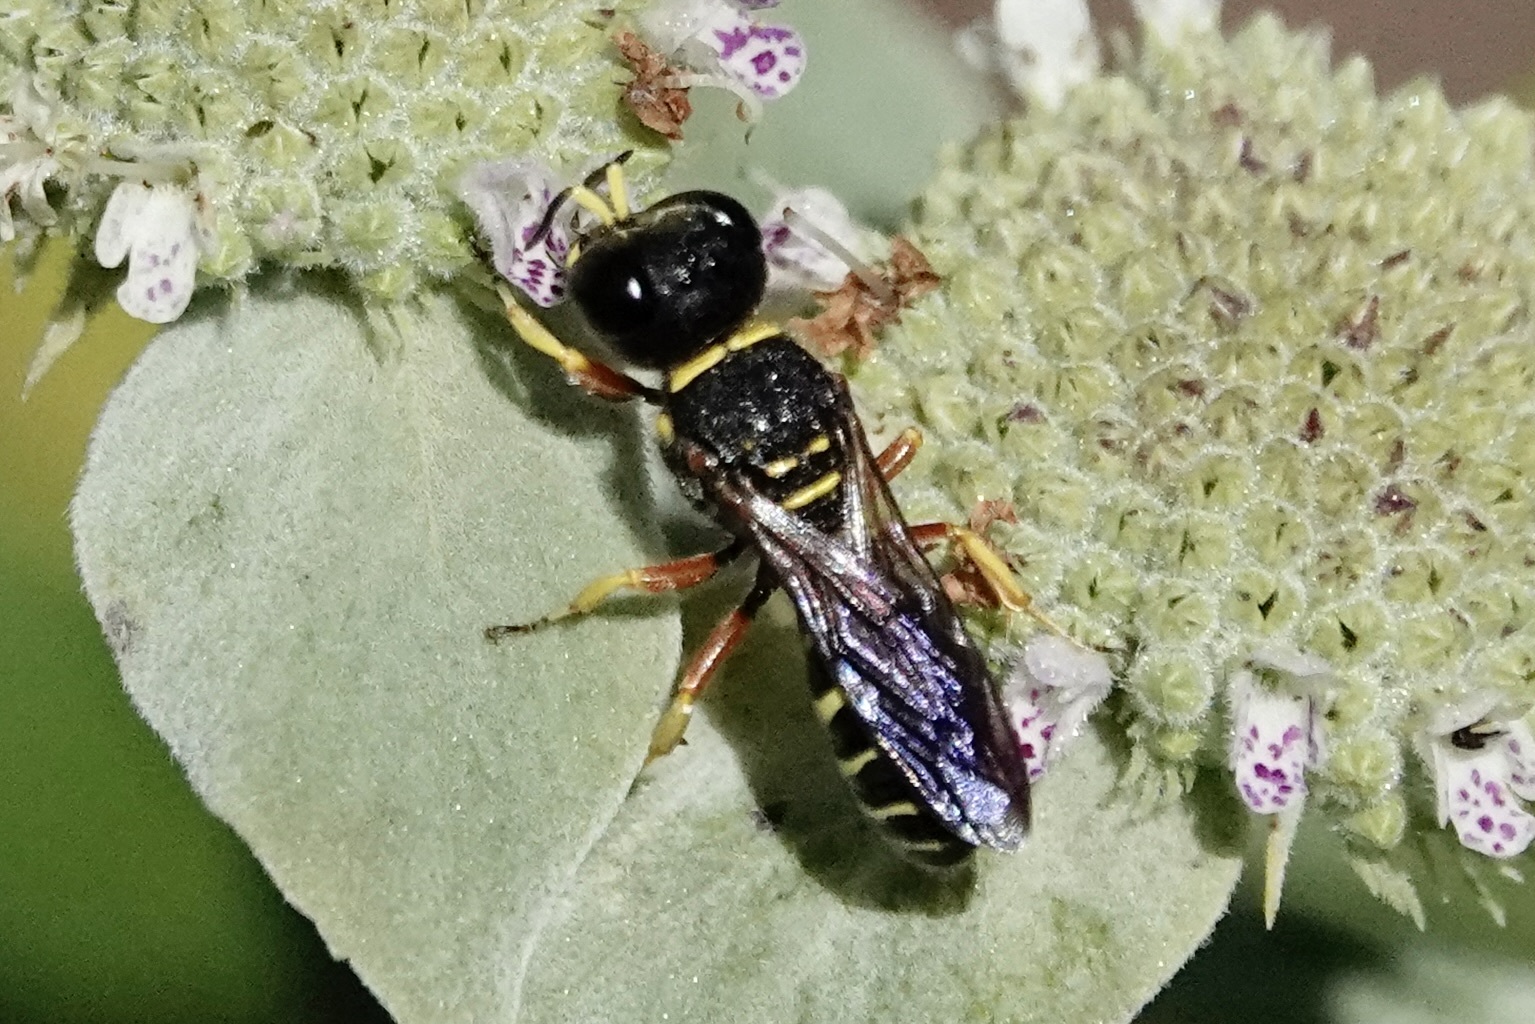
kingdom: Animalia
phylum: Arthropoda
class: Insecta
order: Hymenoptera
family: Crabronidae
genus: Ectemnius
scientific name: Ectemnius decemmaculatus
